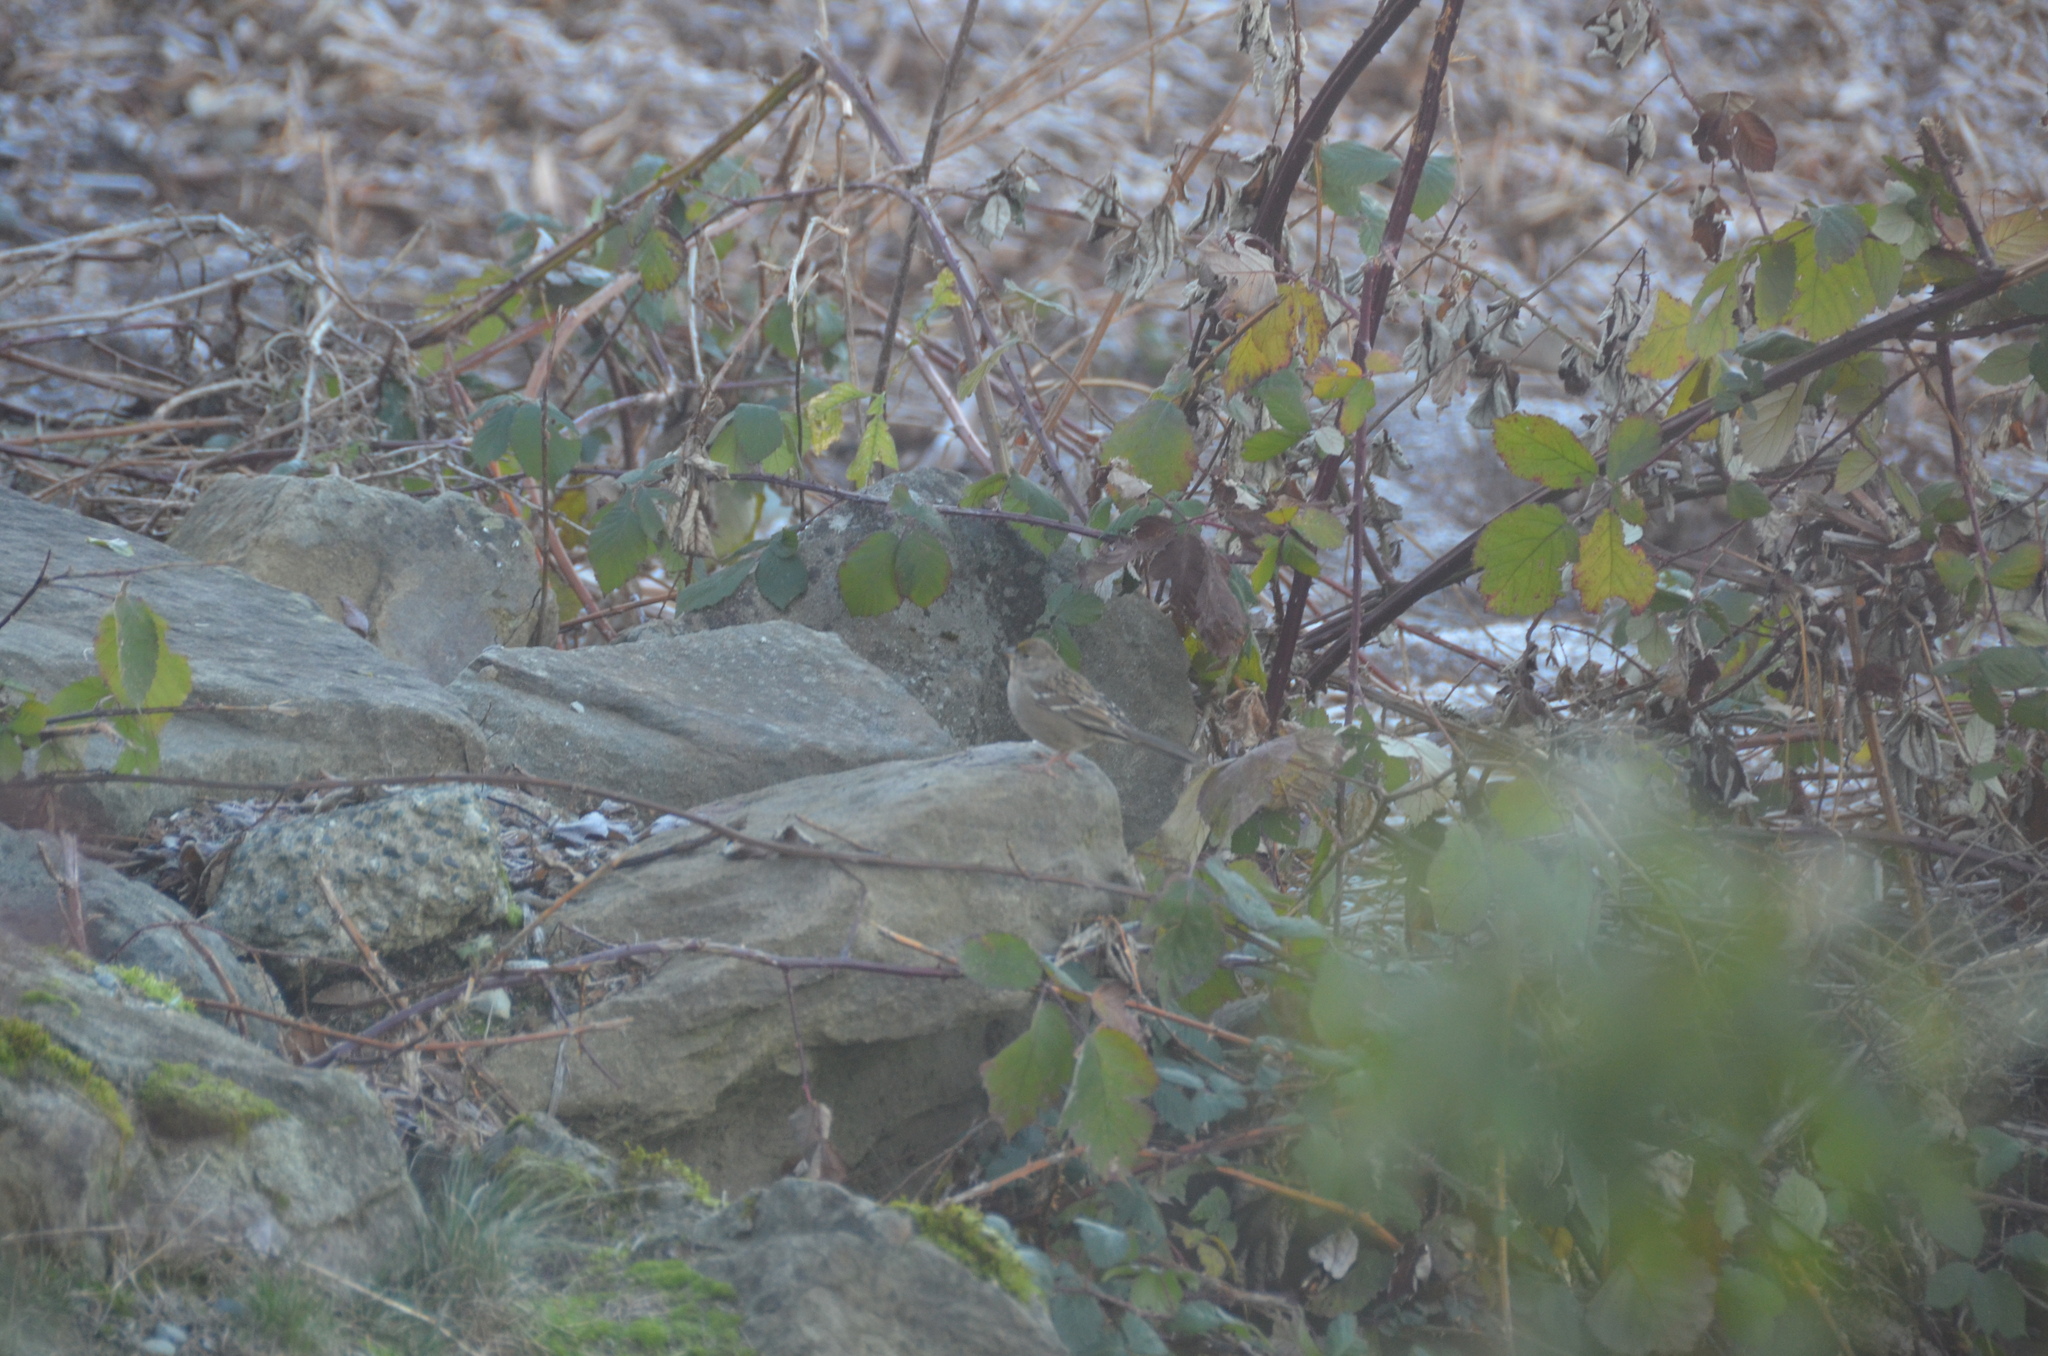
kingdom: Animalia
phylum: Chordata
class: Aves
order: Passeriformes
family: Passerellidae
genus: Zonotrichia
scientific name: Zonotrichia atricapilla
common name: Golden-crowned sparrow
